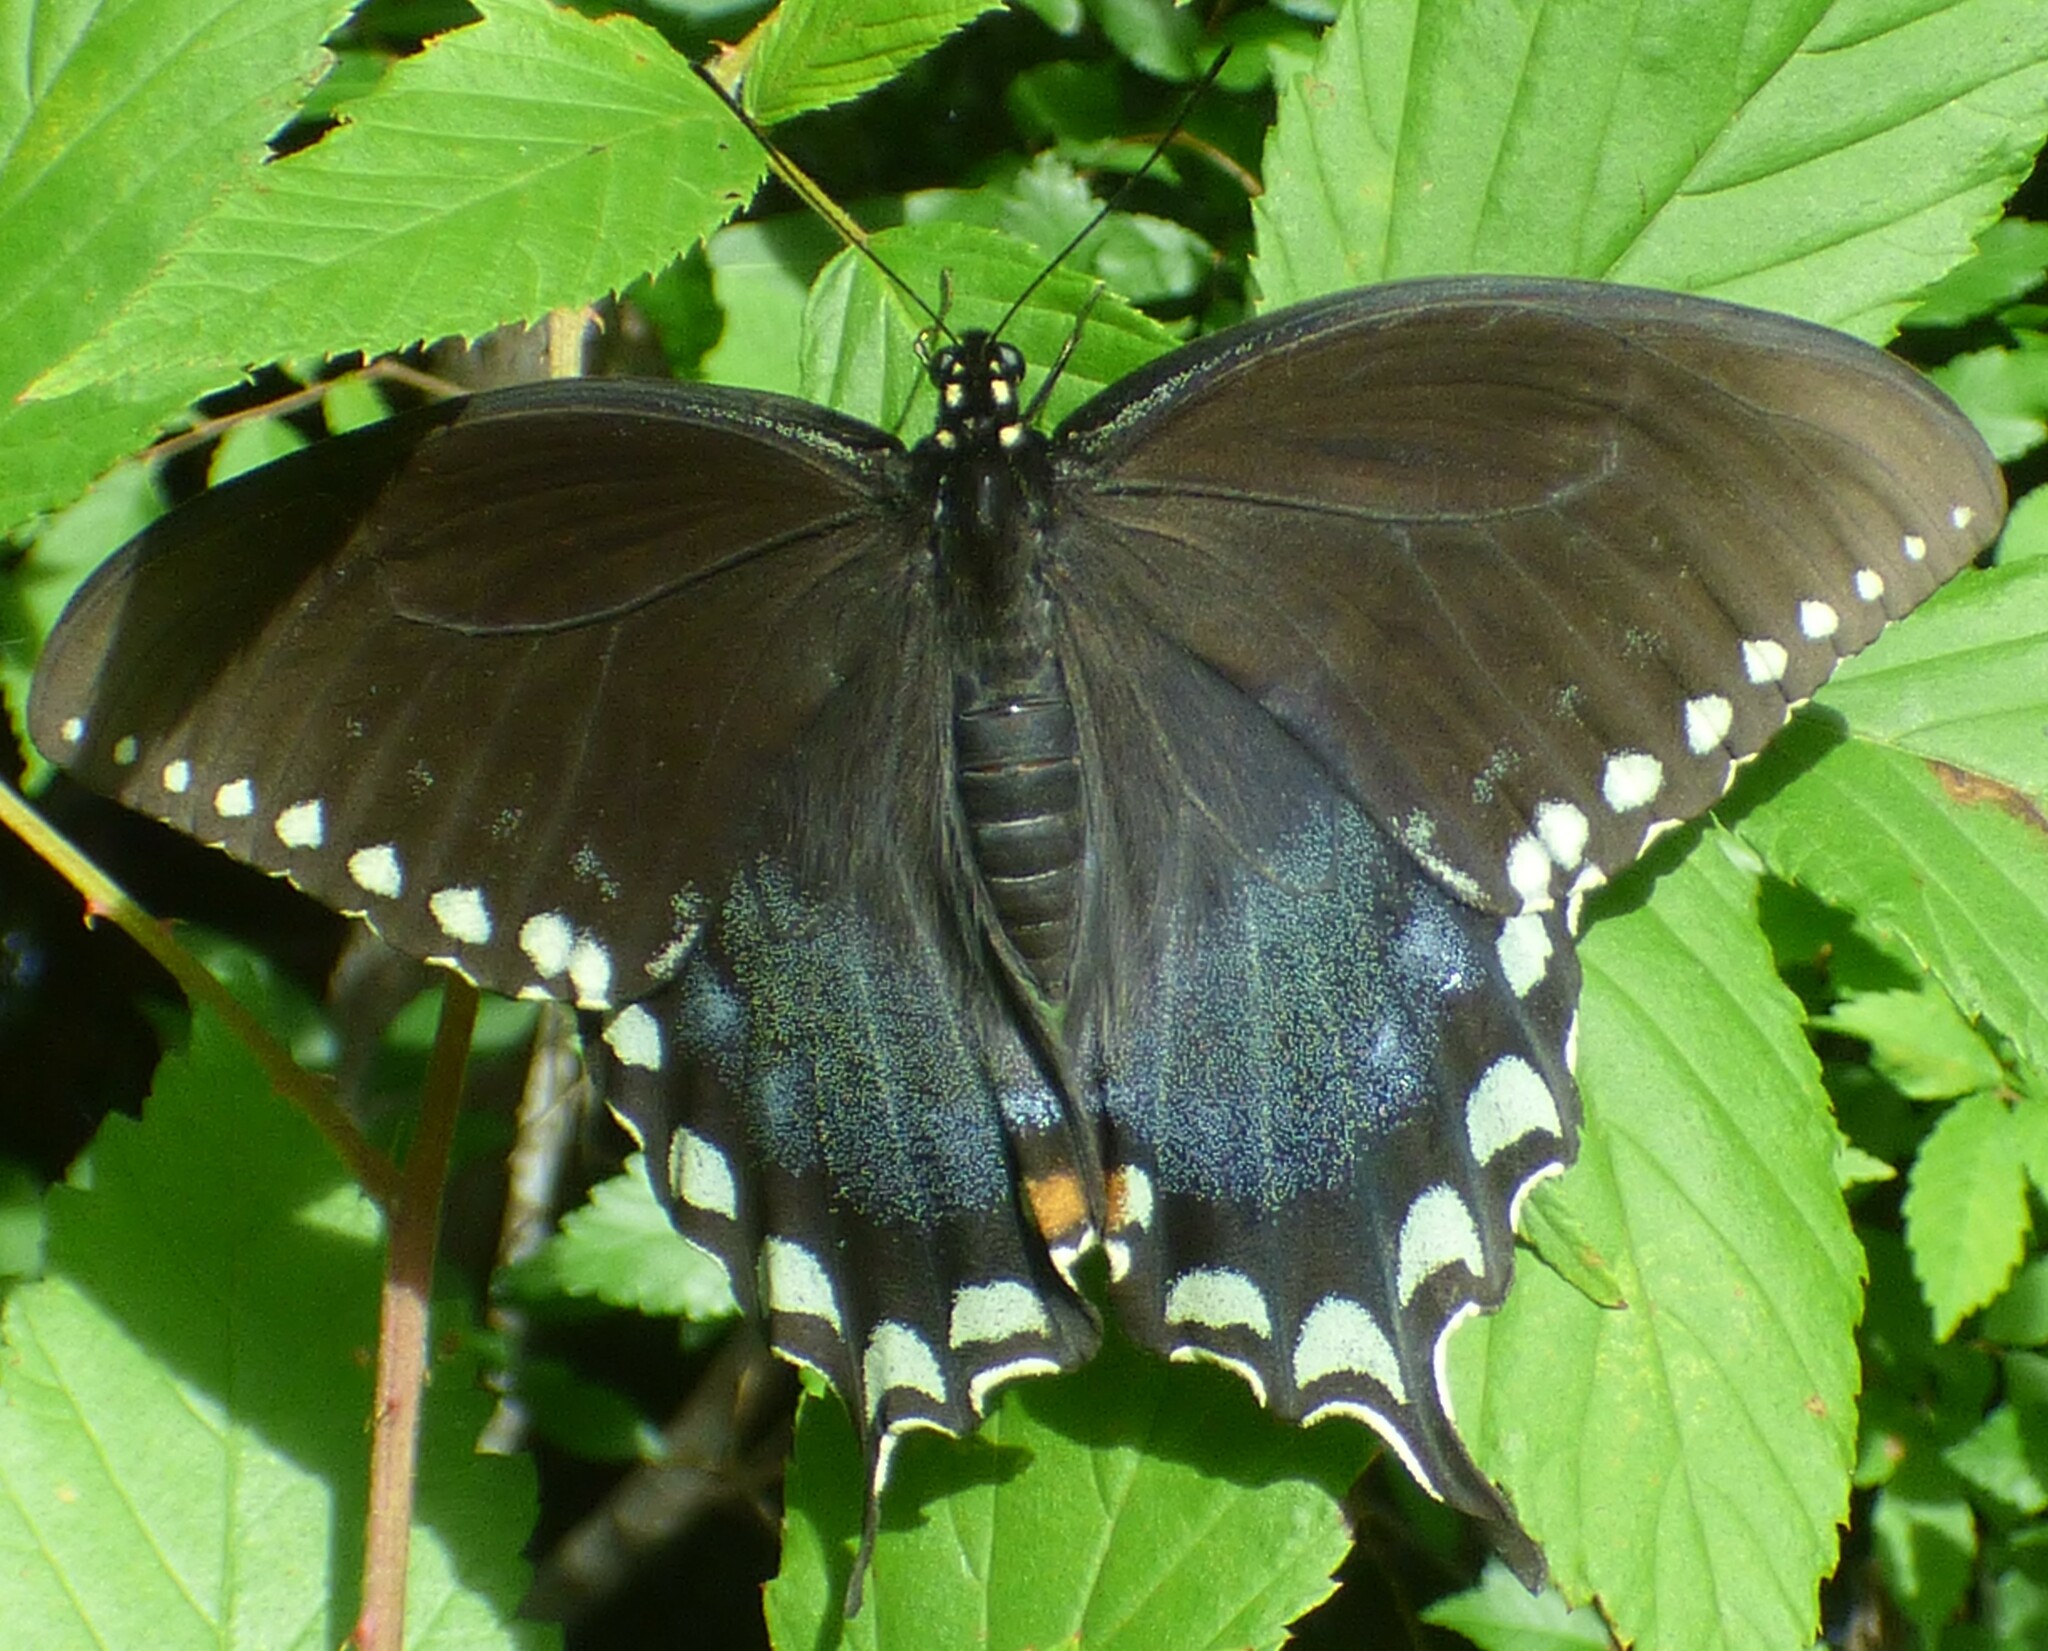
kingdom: Animalia
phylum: Arthropoda
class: Insecta
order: Lepidoptera
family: Papilionidae
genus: Papilio
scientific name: Papilio troilus
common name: Spicebush swallowtail
